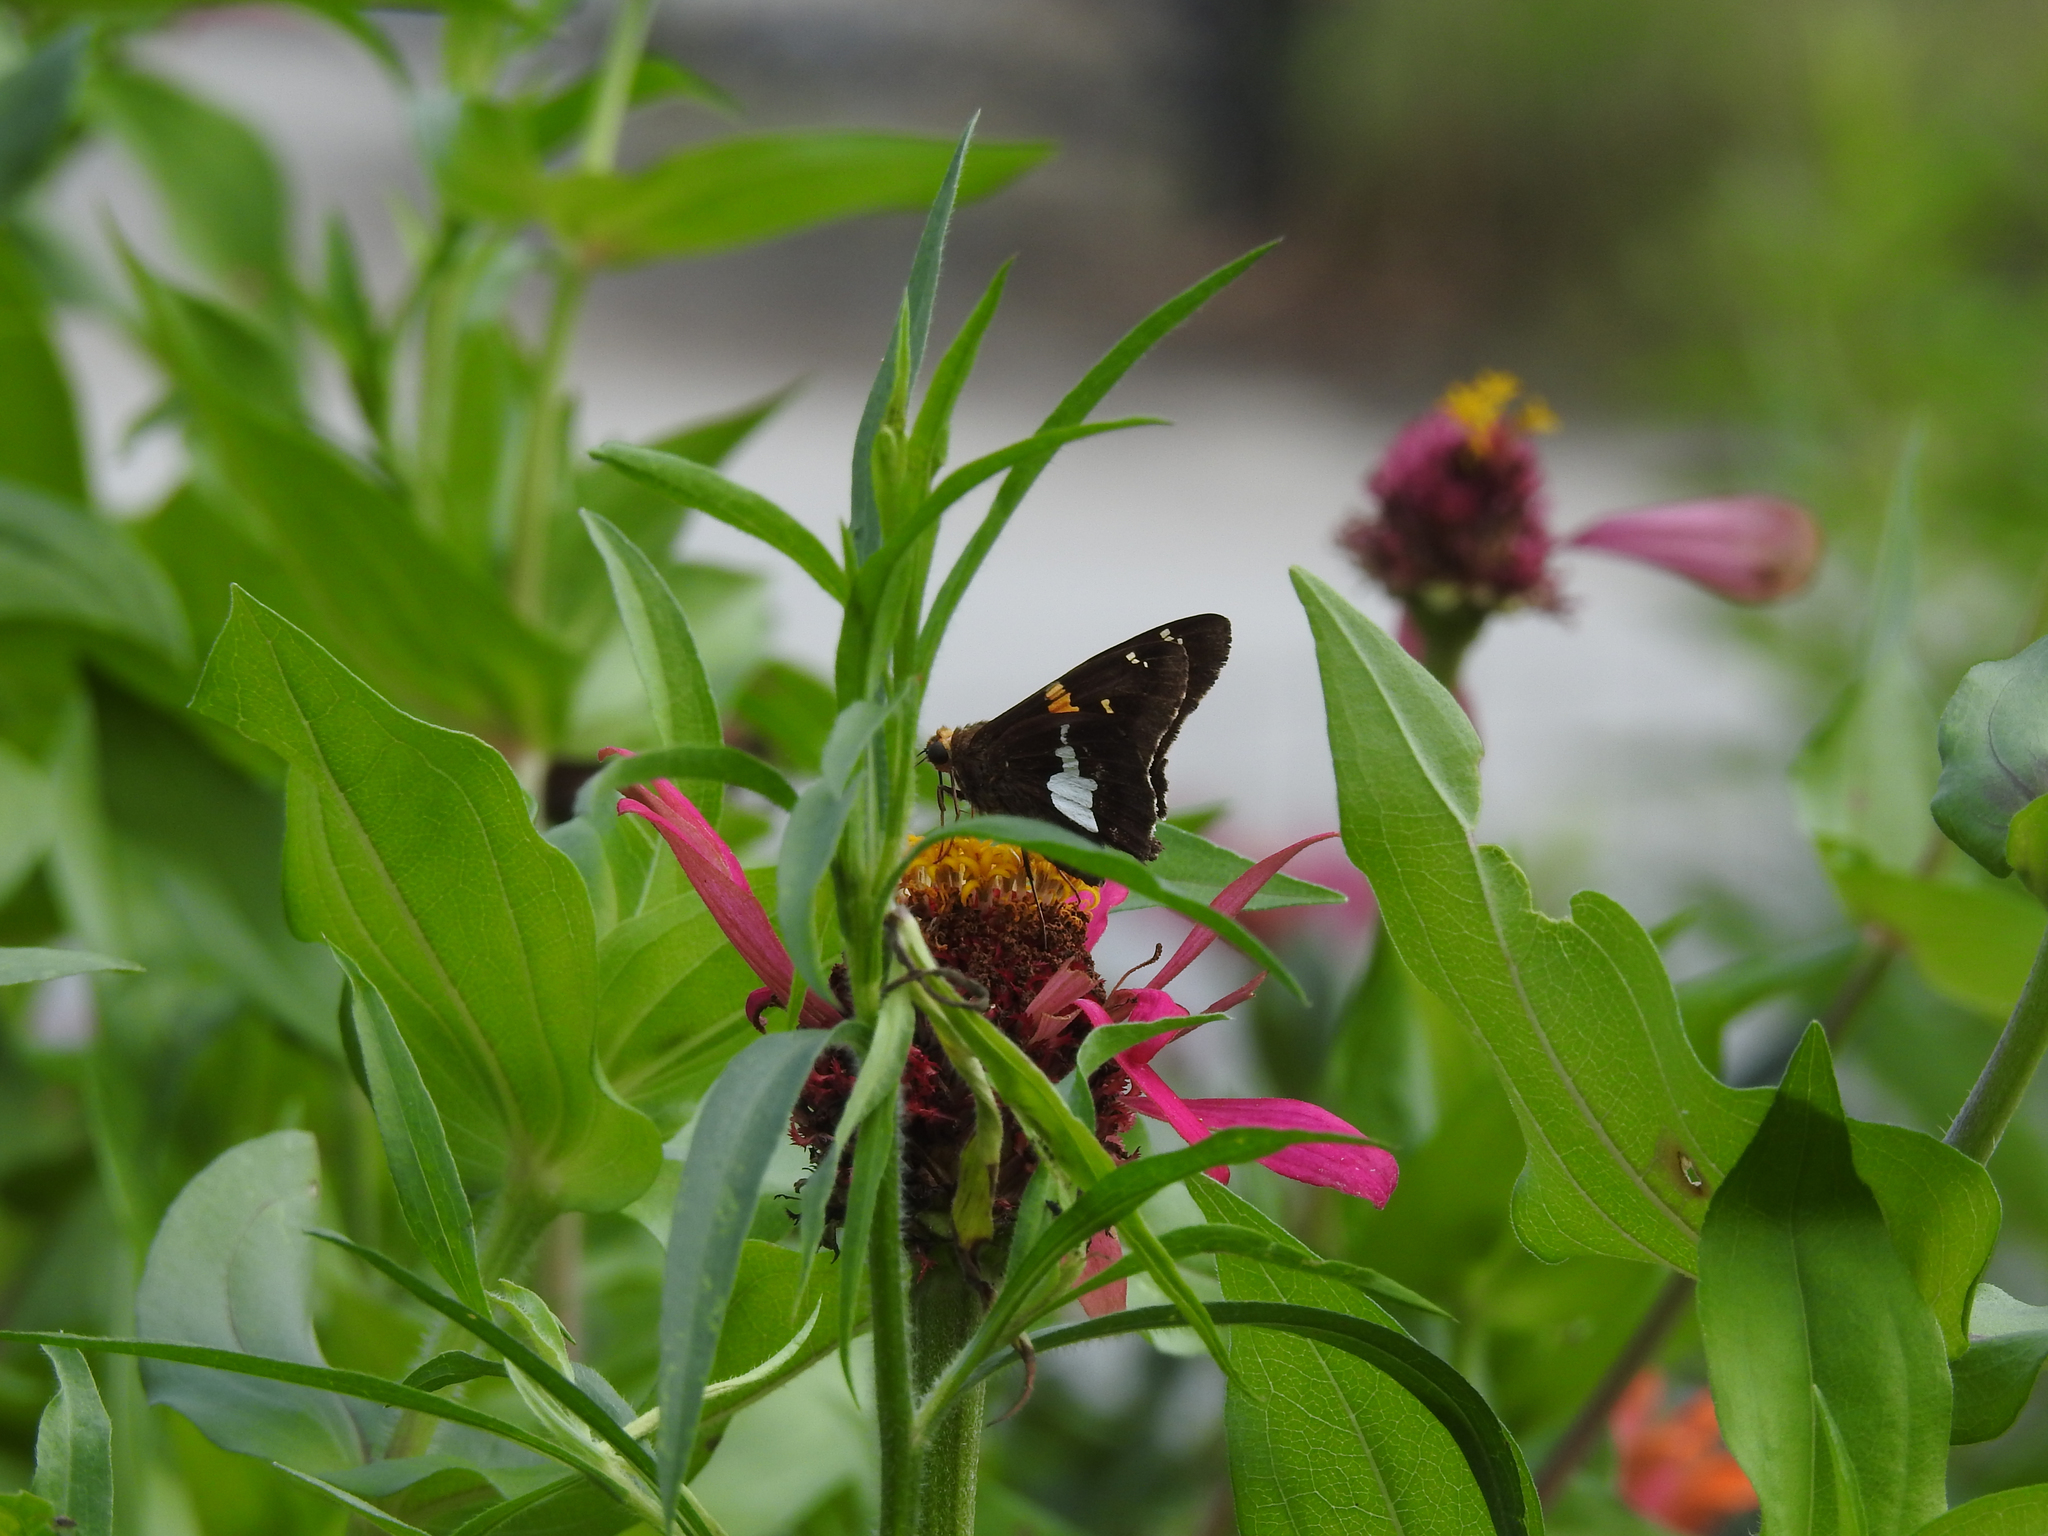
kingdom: Animalia
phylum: Arthropoda
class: Insecta
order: Lepidoptera
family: Hesperiidae
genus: Epargyreus
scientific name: Epargyreus clarus
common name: Silver-spotted skipper
